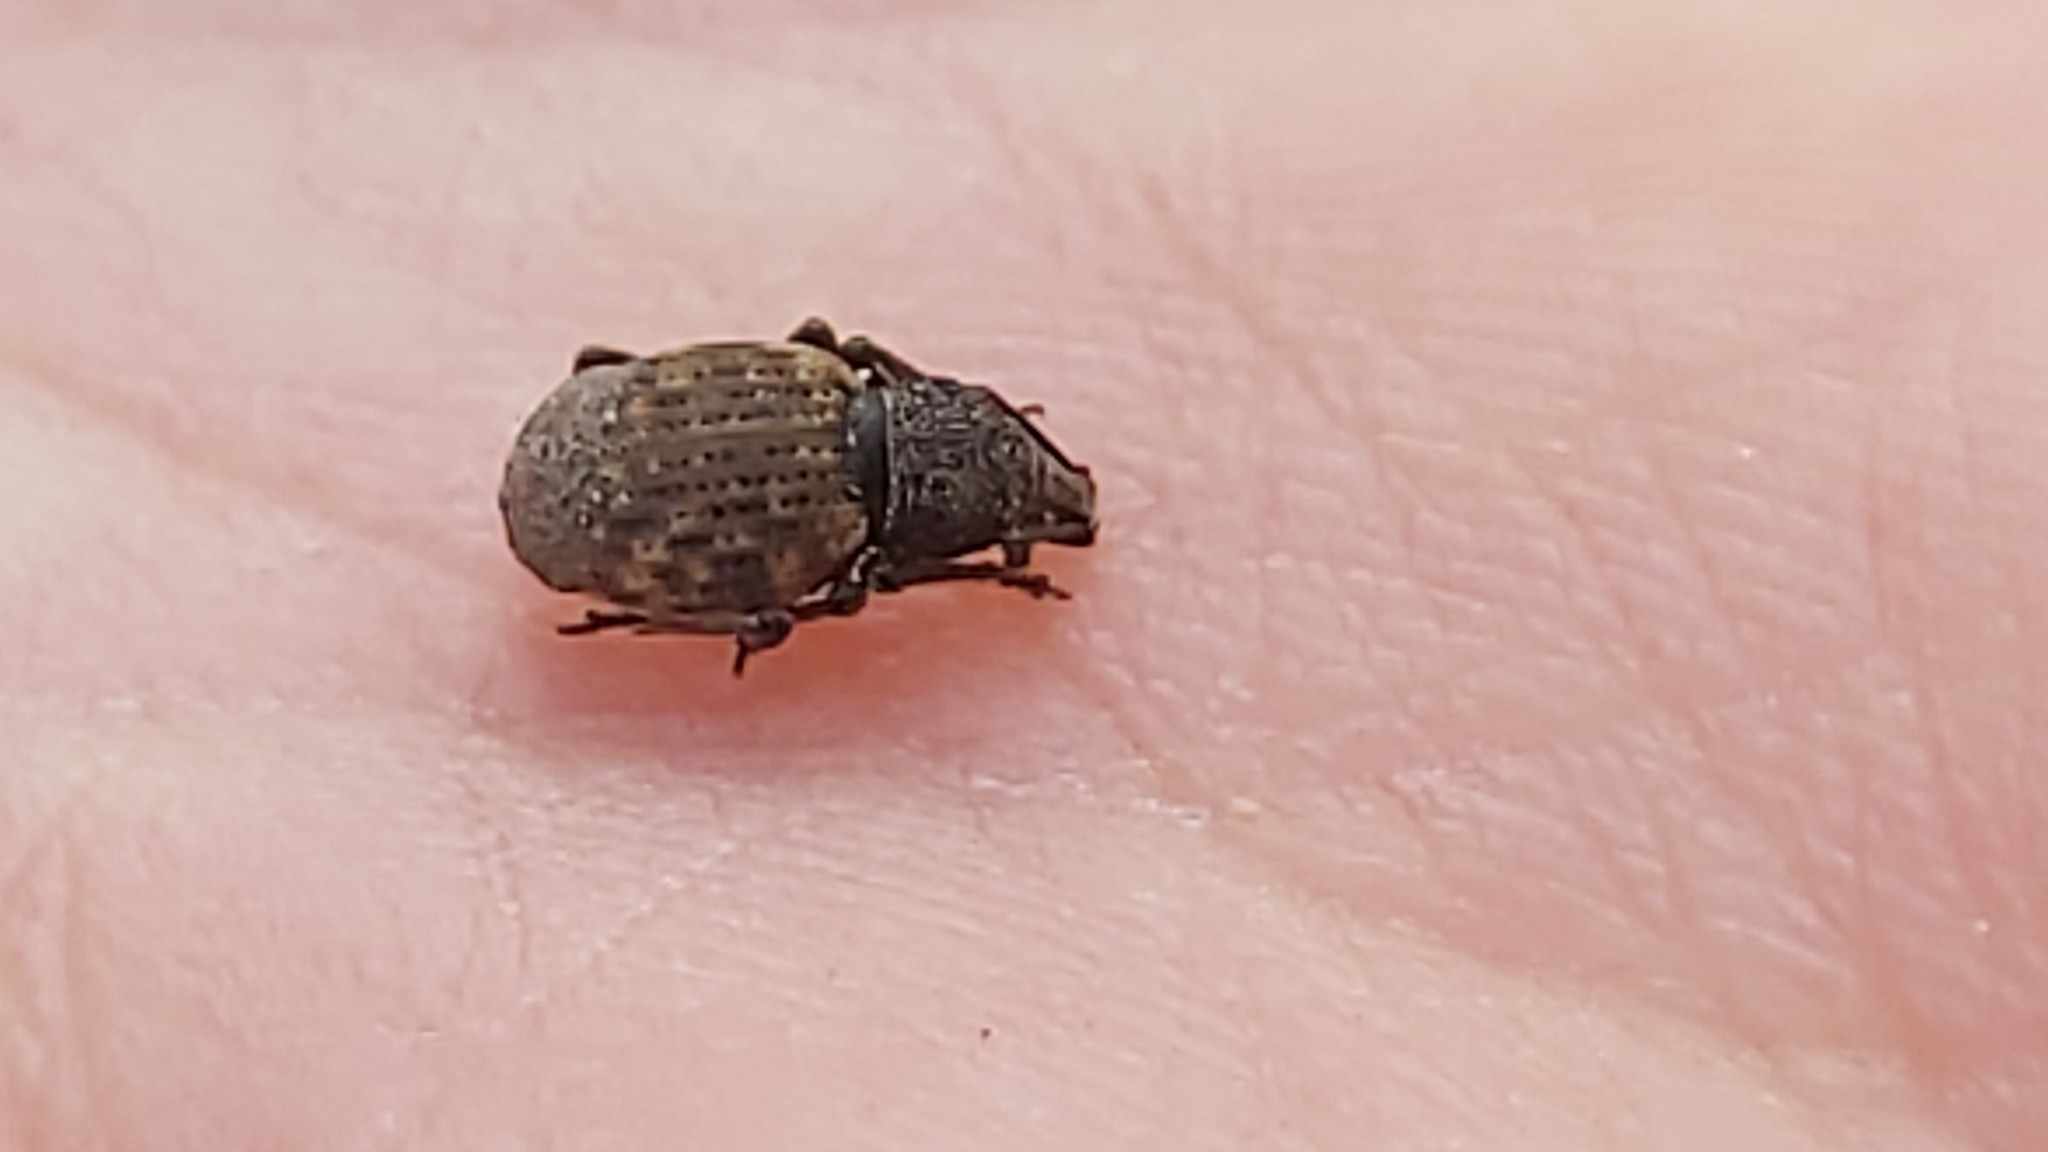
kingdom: Animalia
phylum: Arthropoda
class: Insecta
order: Coleoptera
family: Curculionidae
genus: Otiorhynchus
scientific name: Otiorhynchus raucus
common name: Weevil
